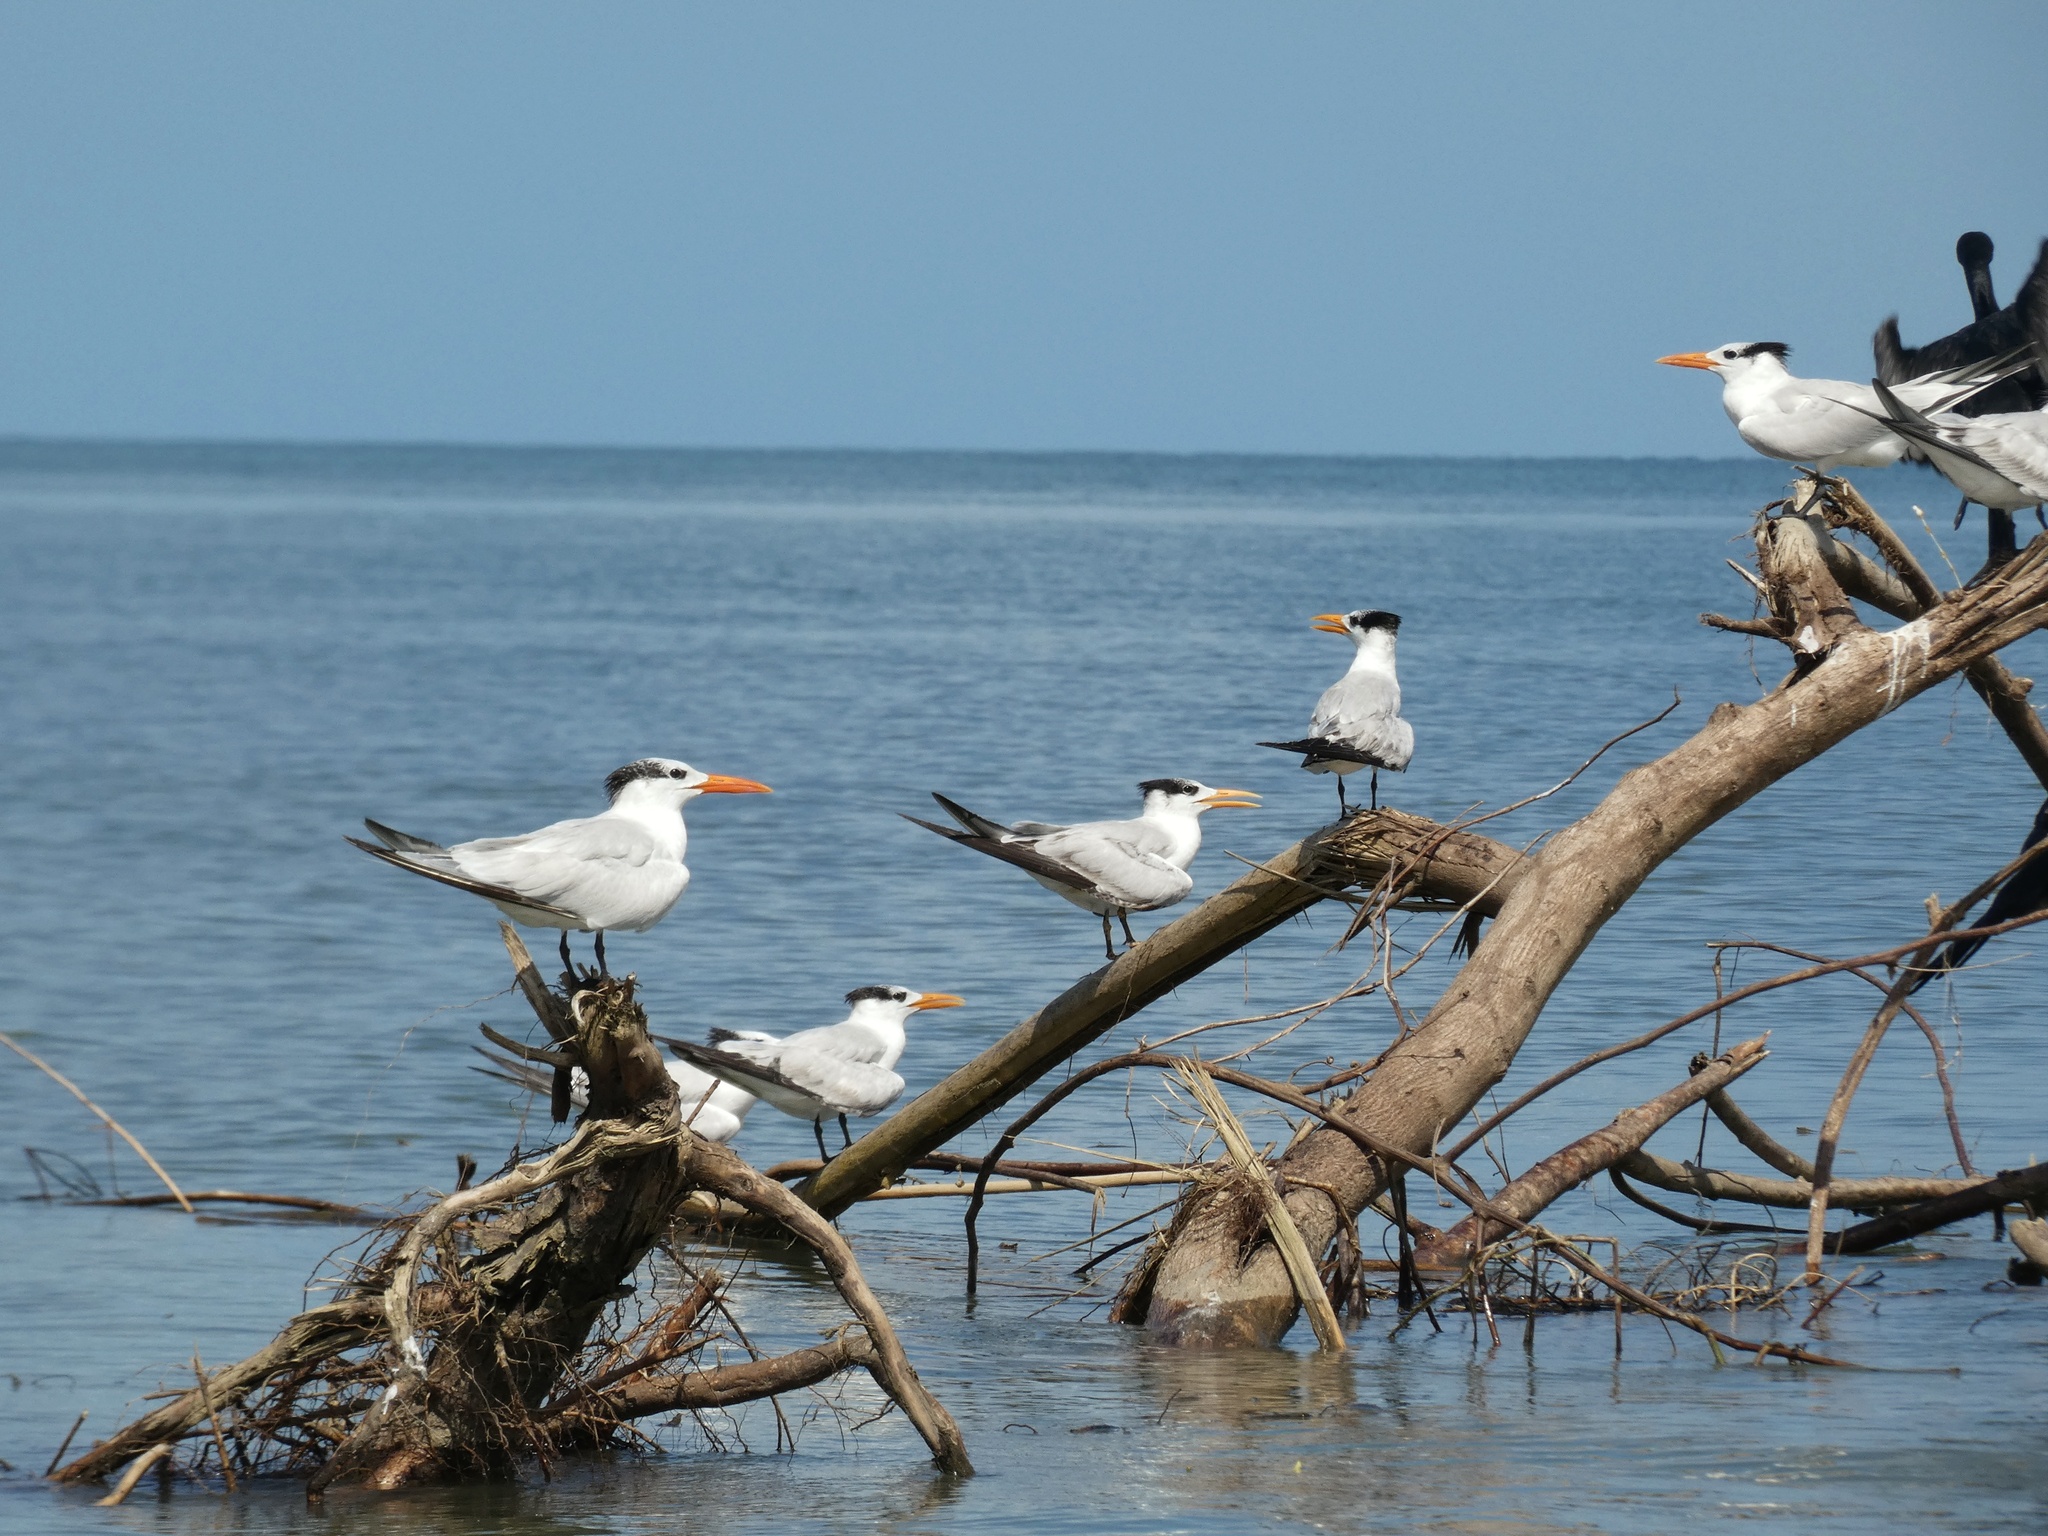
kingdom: Animalia
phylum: Chordata
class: Aves
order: Charadriiformes
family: Laridae
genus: Thalasseus
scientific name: Thalasseus maximus
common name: Royal tern
